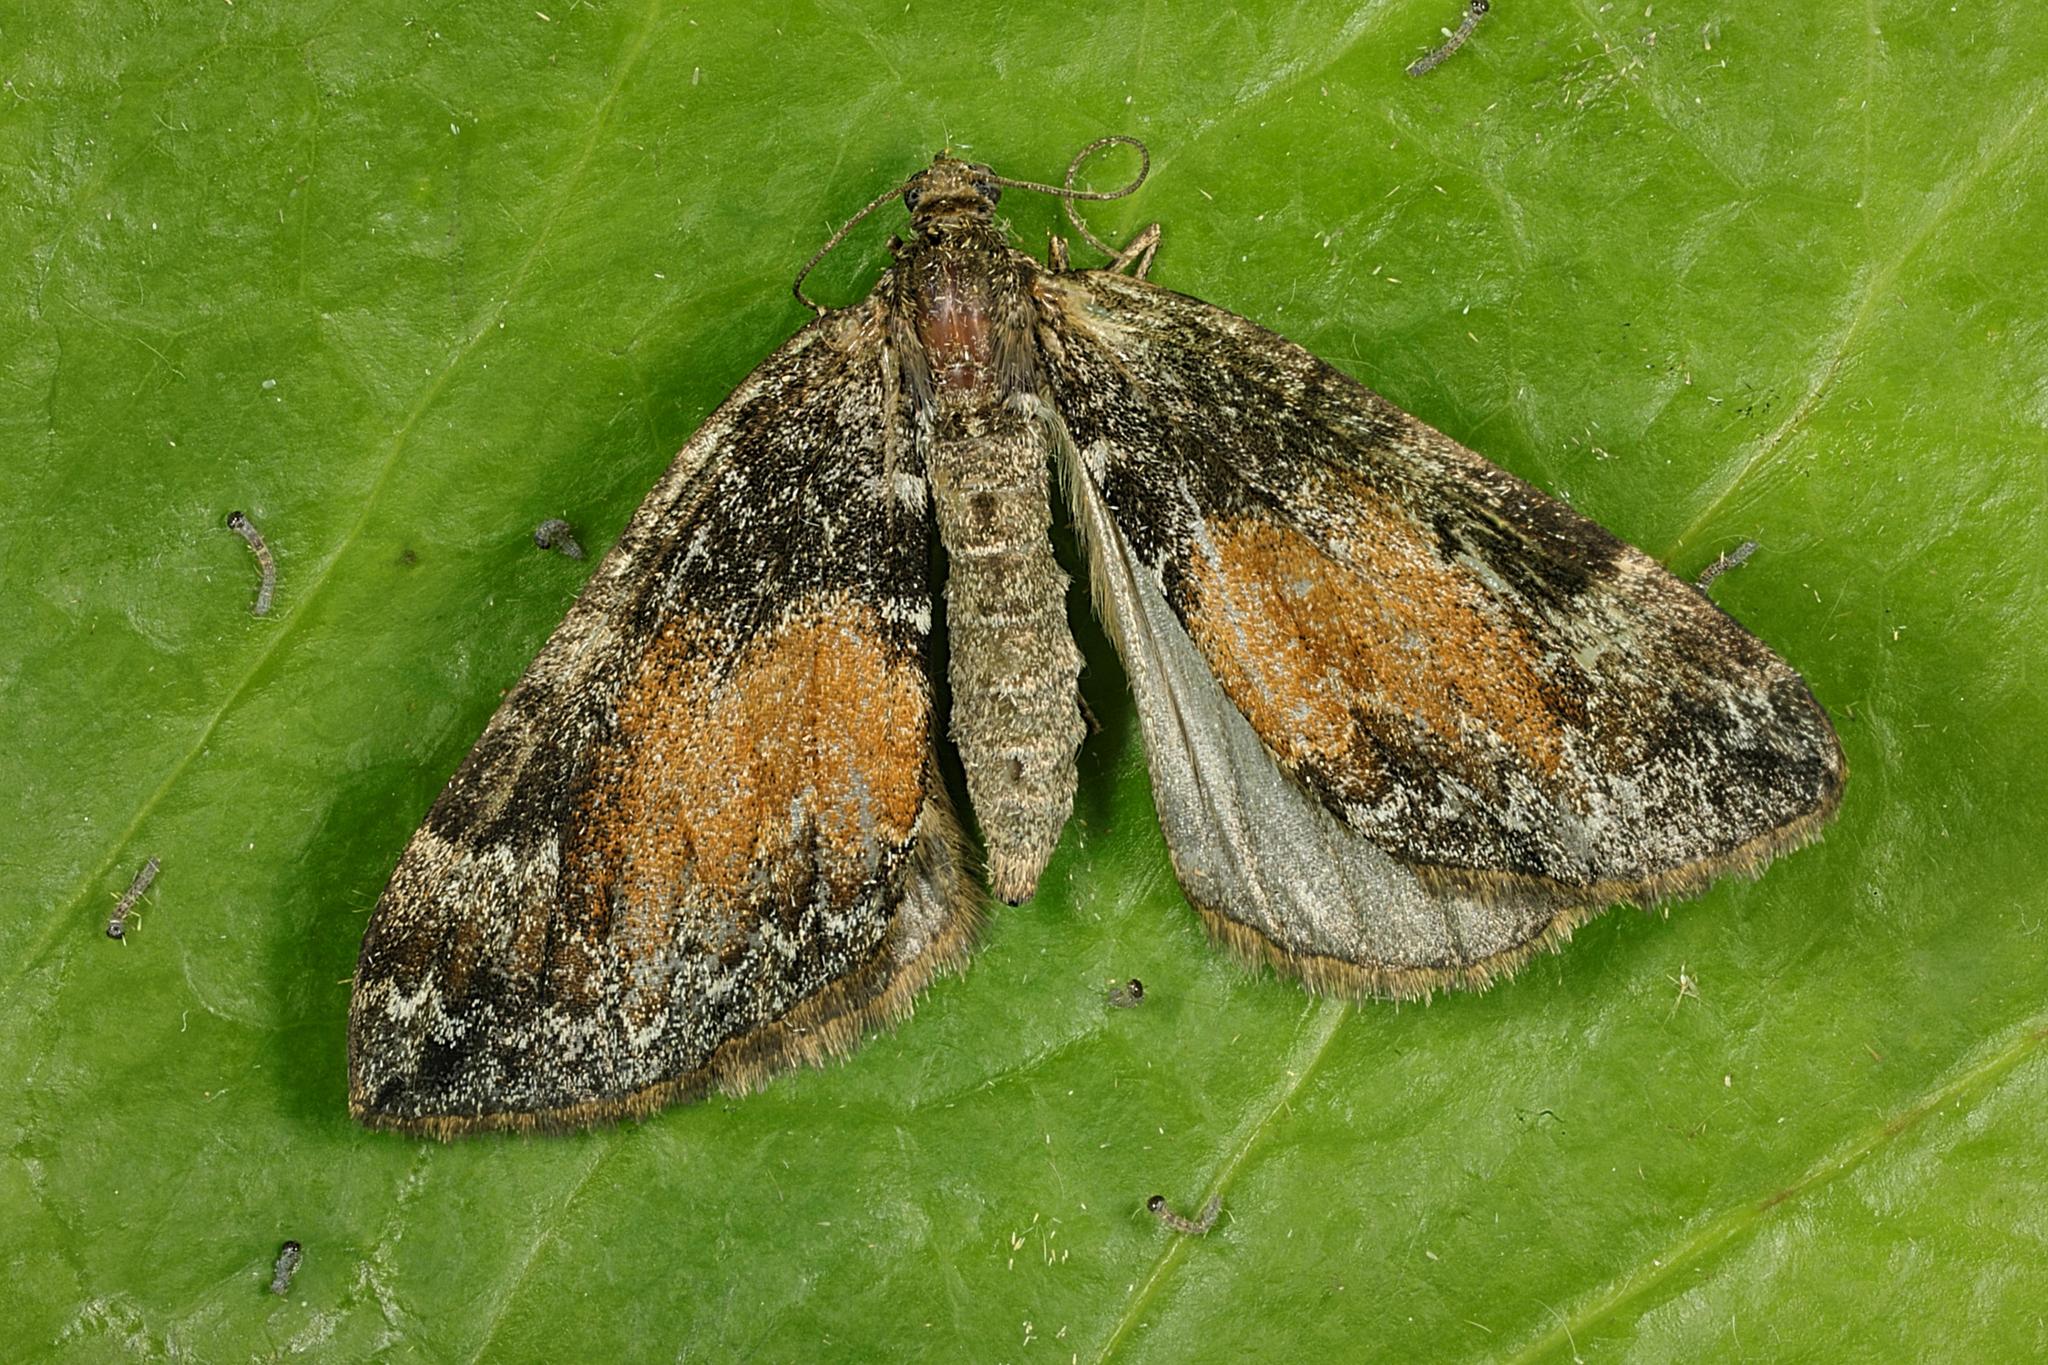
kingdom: Animalia
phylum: Arthropoda
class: Insecta
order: Lepidoptera
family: Geometridae
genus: Dysstroma
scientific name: Dysstroma truncata
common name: Common marbled carpet
